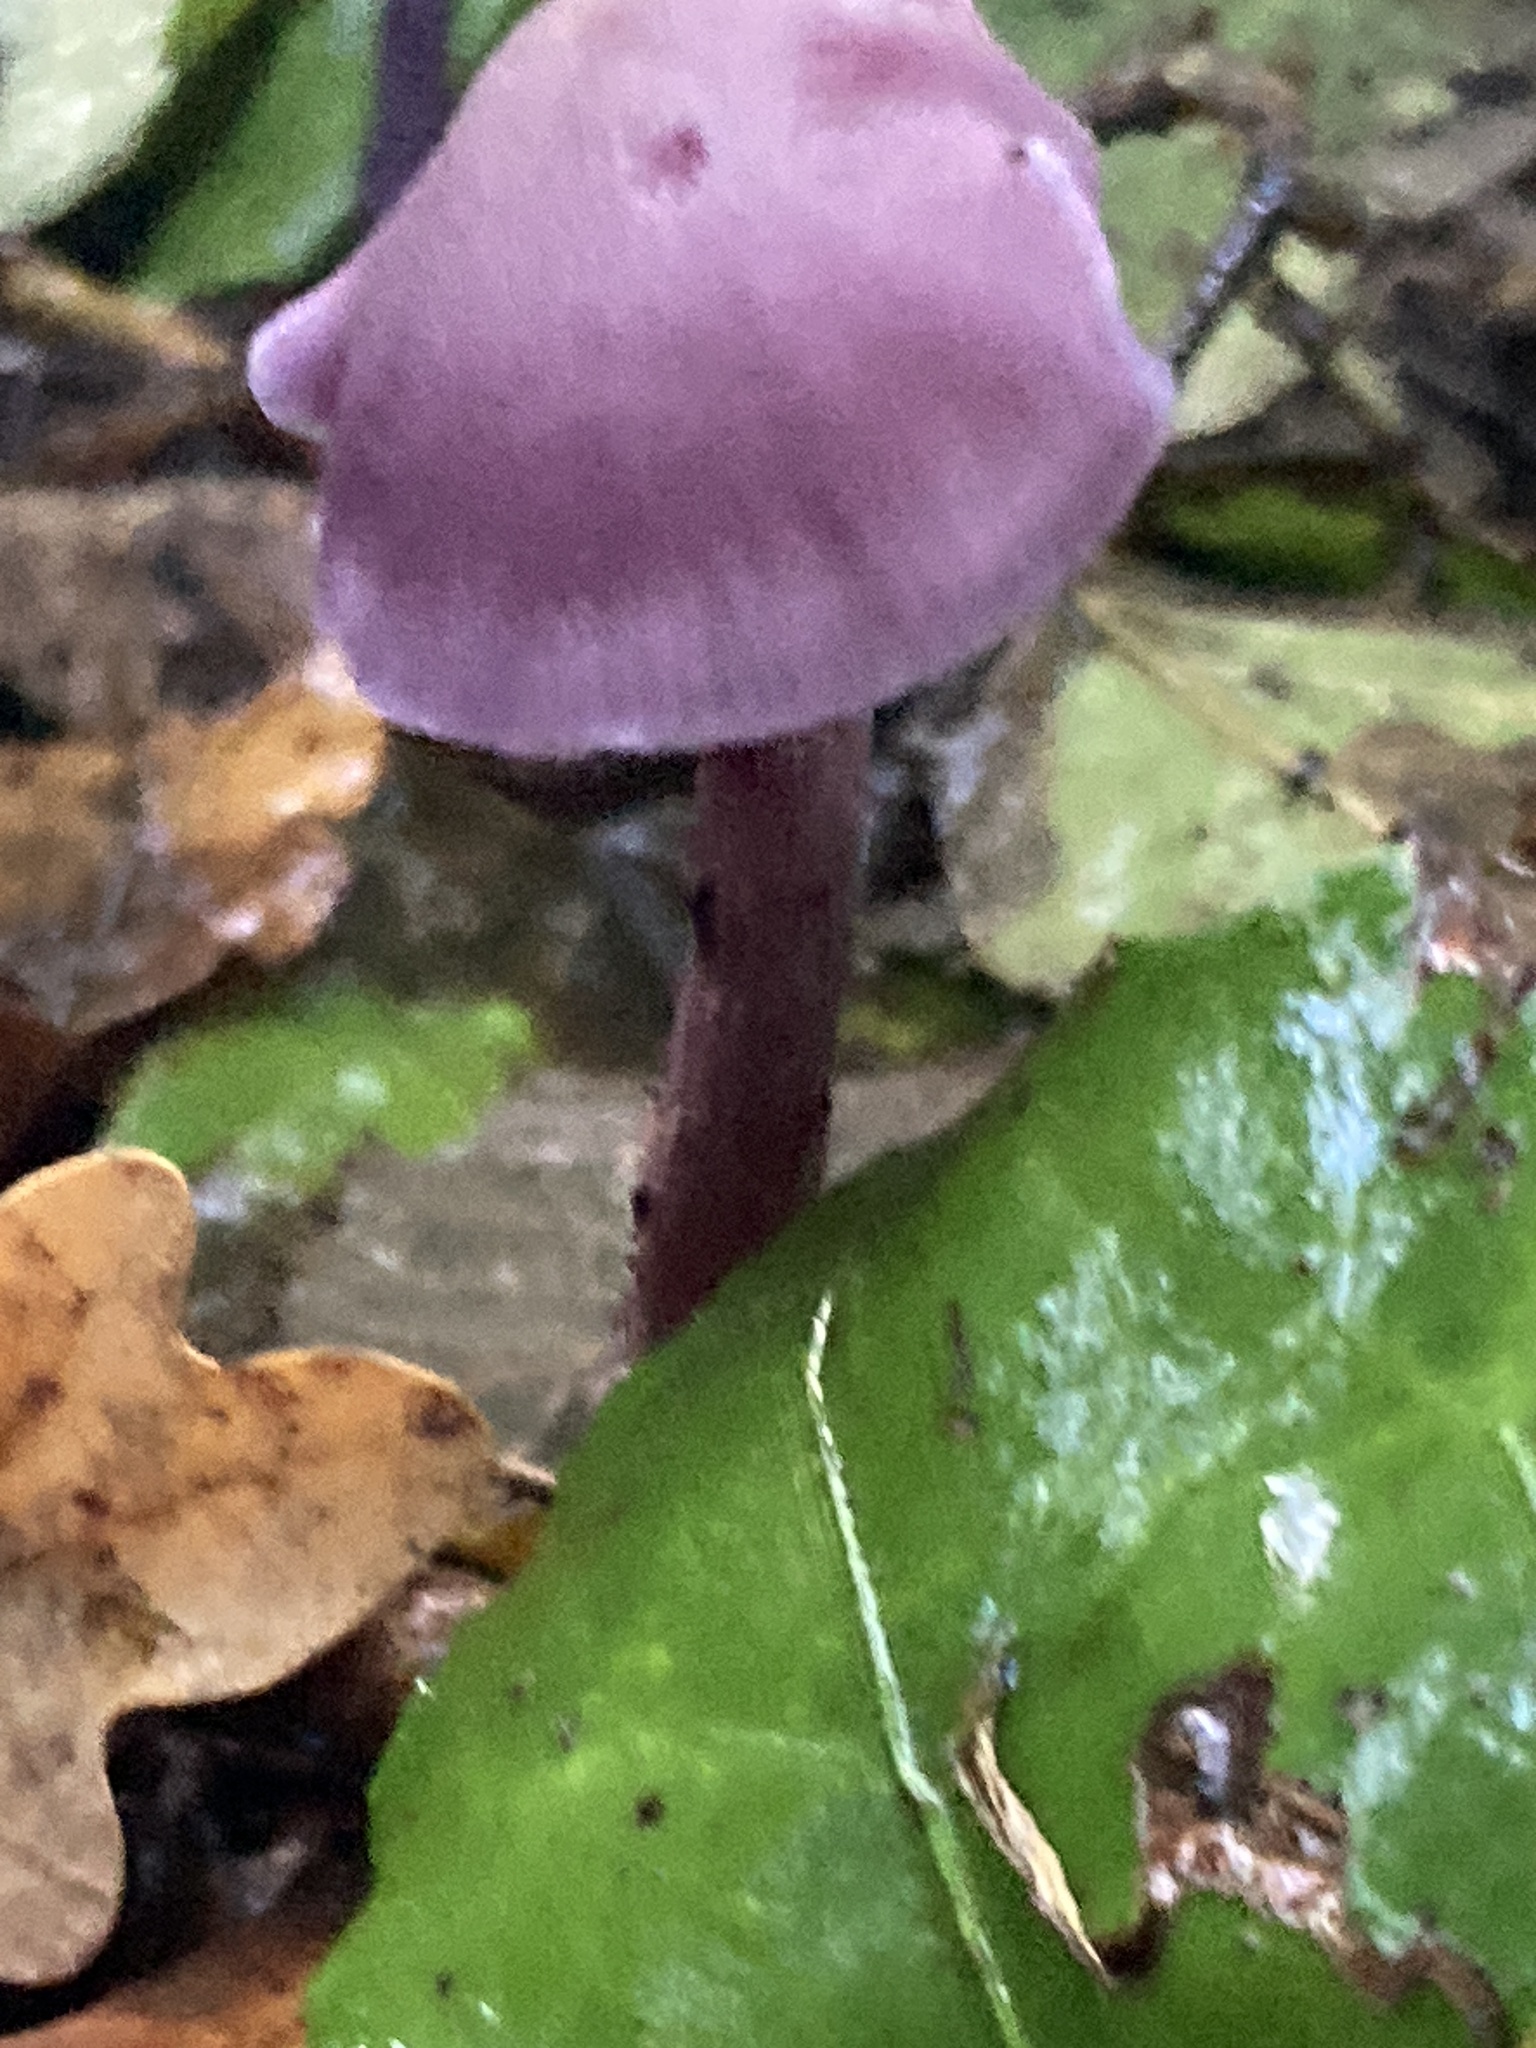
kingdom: Fungi
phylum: Basidiomycota
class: Agaricomycetes
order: Agaricales
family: Hydnangiaceae
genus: Laccaria
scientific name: Laccaria amethystina
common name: Amethyst deceiver
